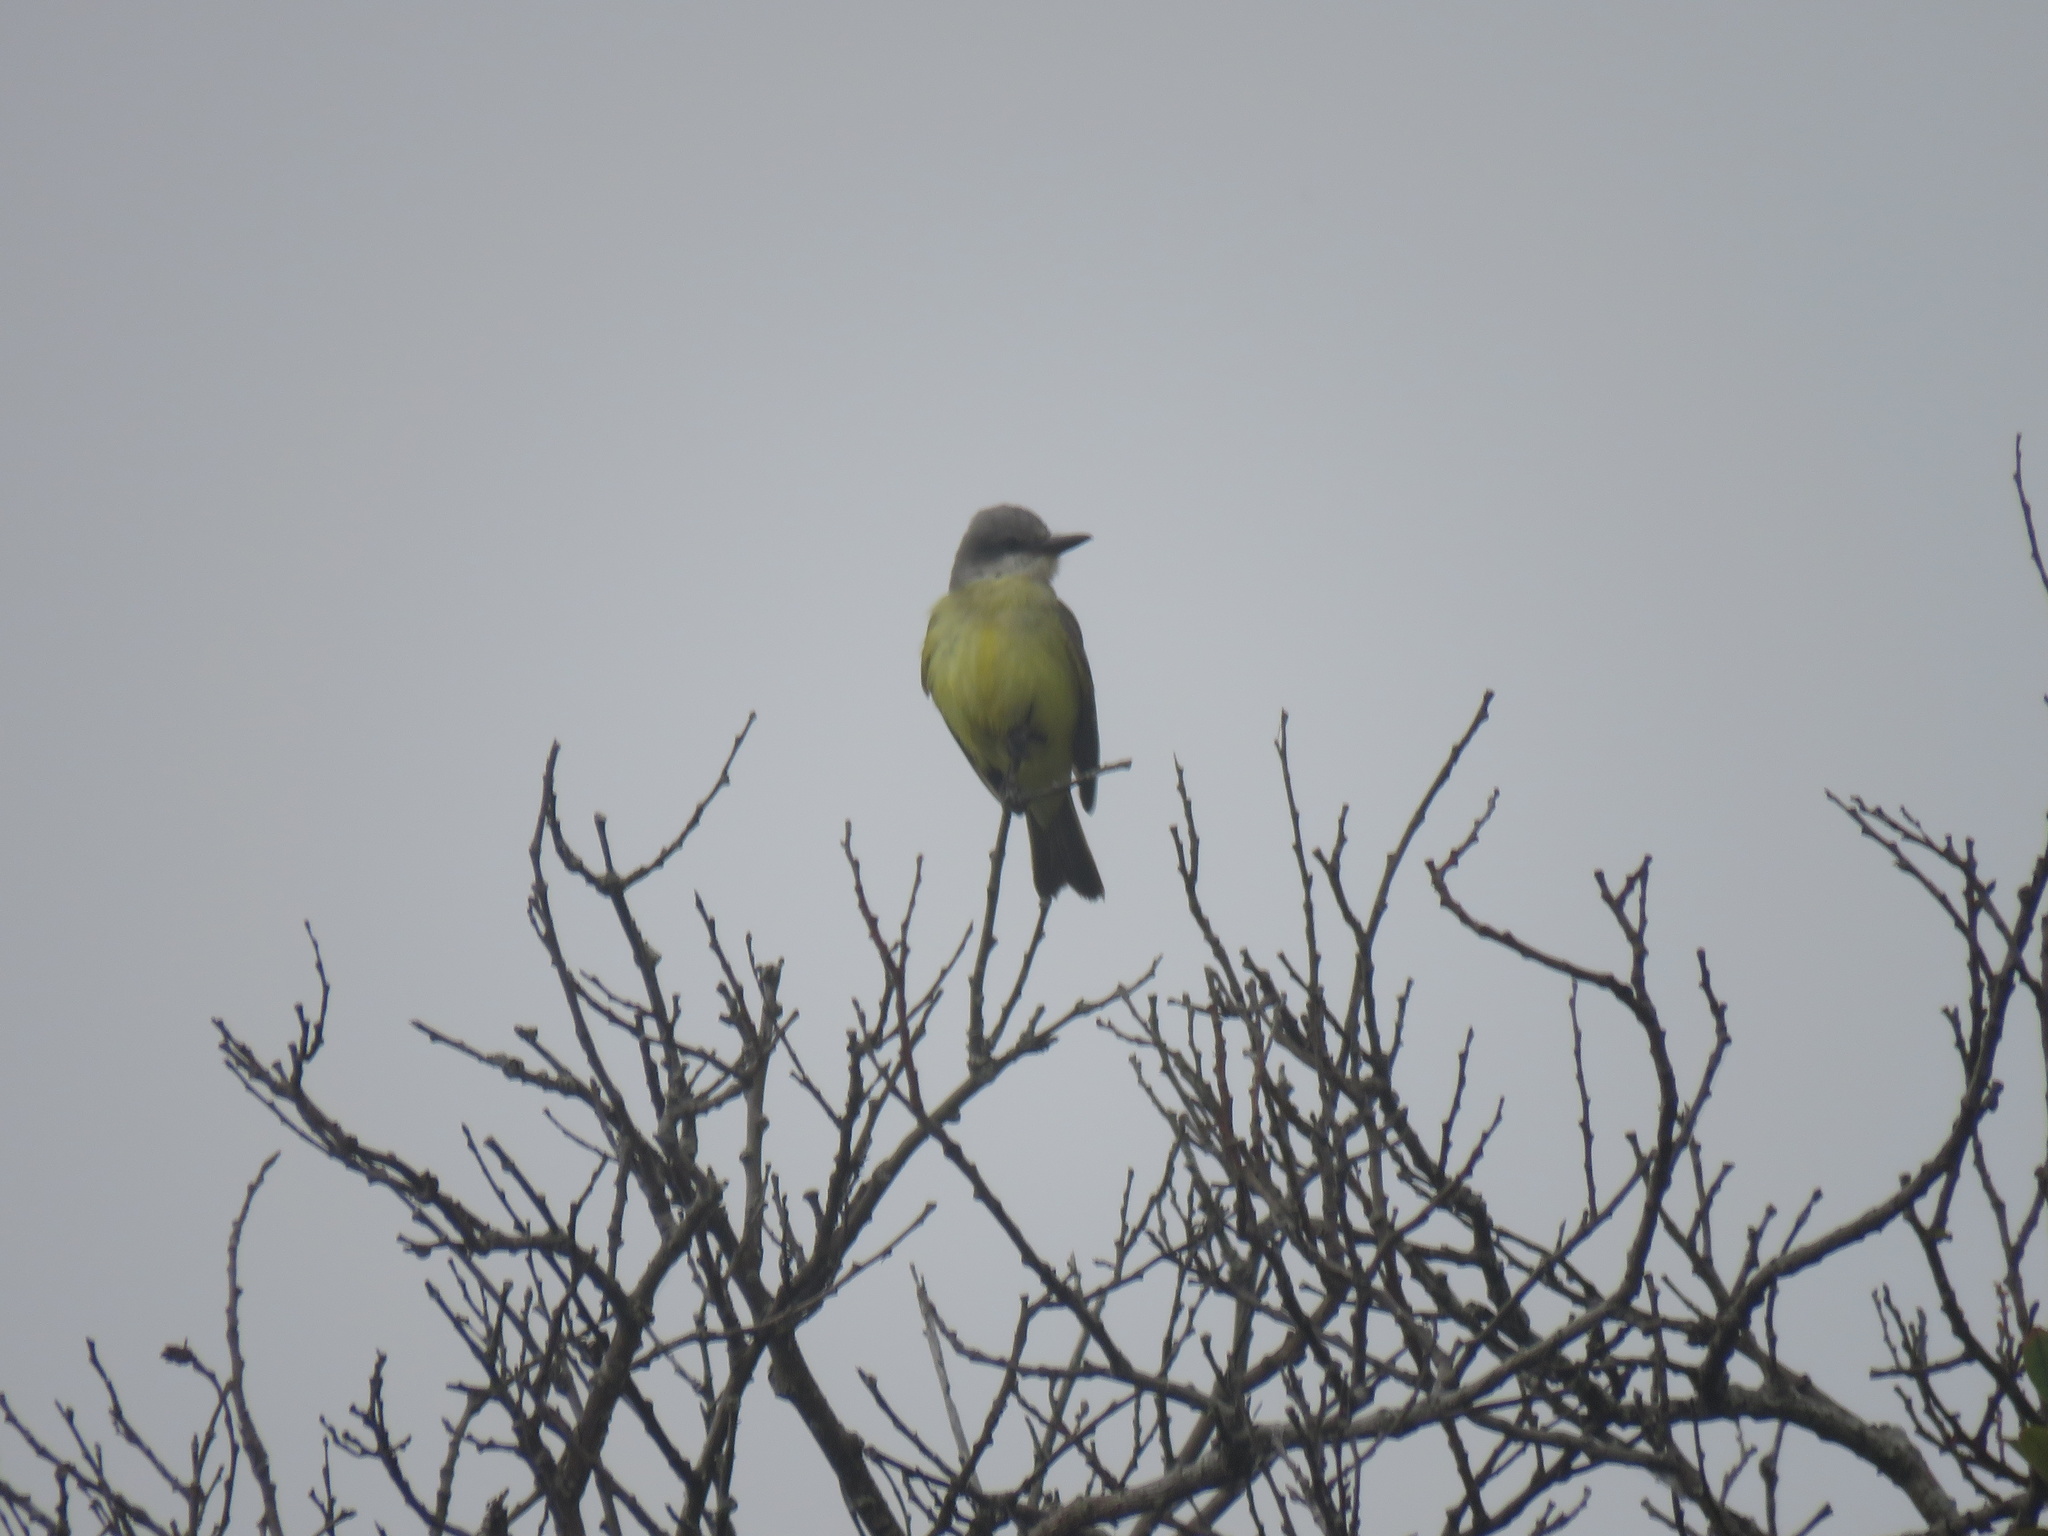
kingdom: Animalia
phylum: Chordata
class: Aves
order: Passeriformes
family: Tyrannidae
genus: Tyrannus
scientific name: Tyrannus melancholicus
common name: Tropical kingbird
